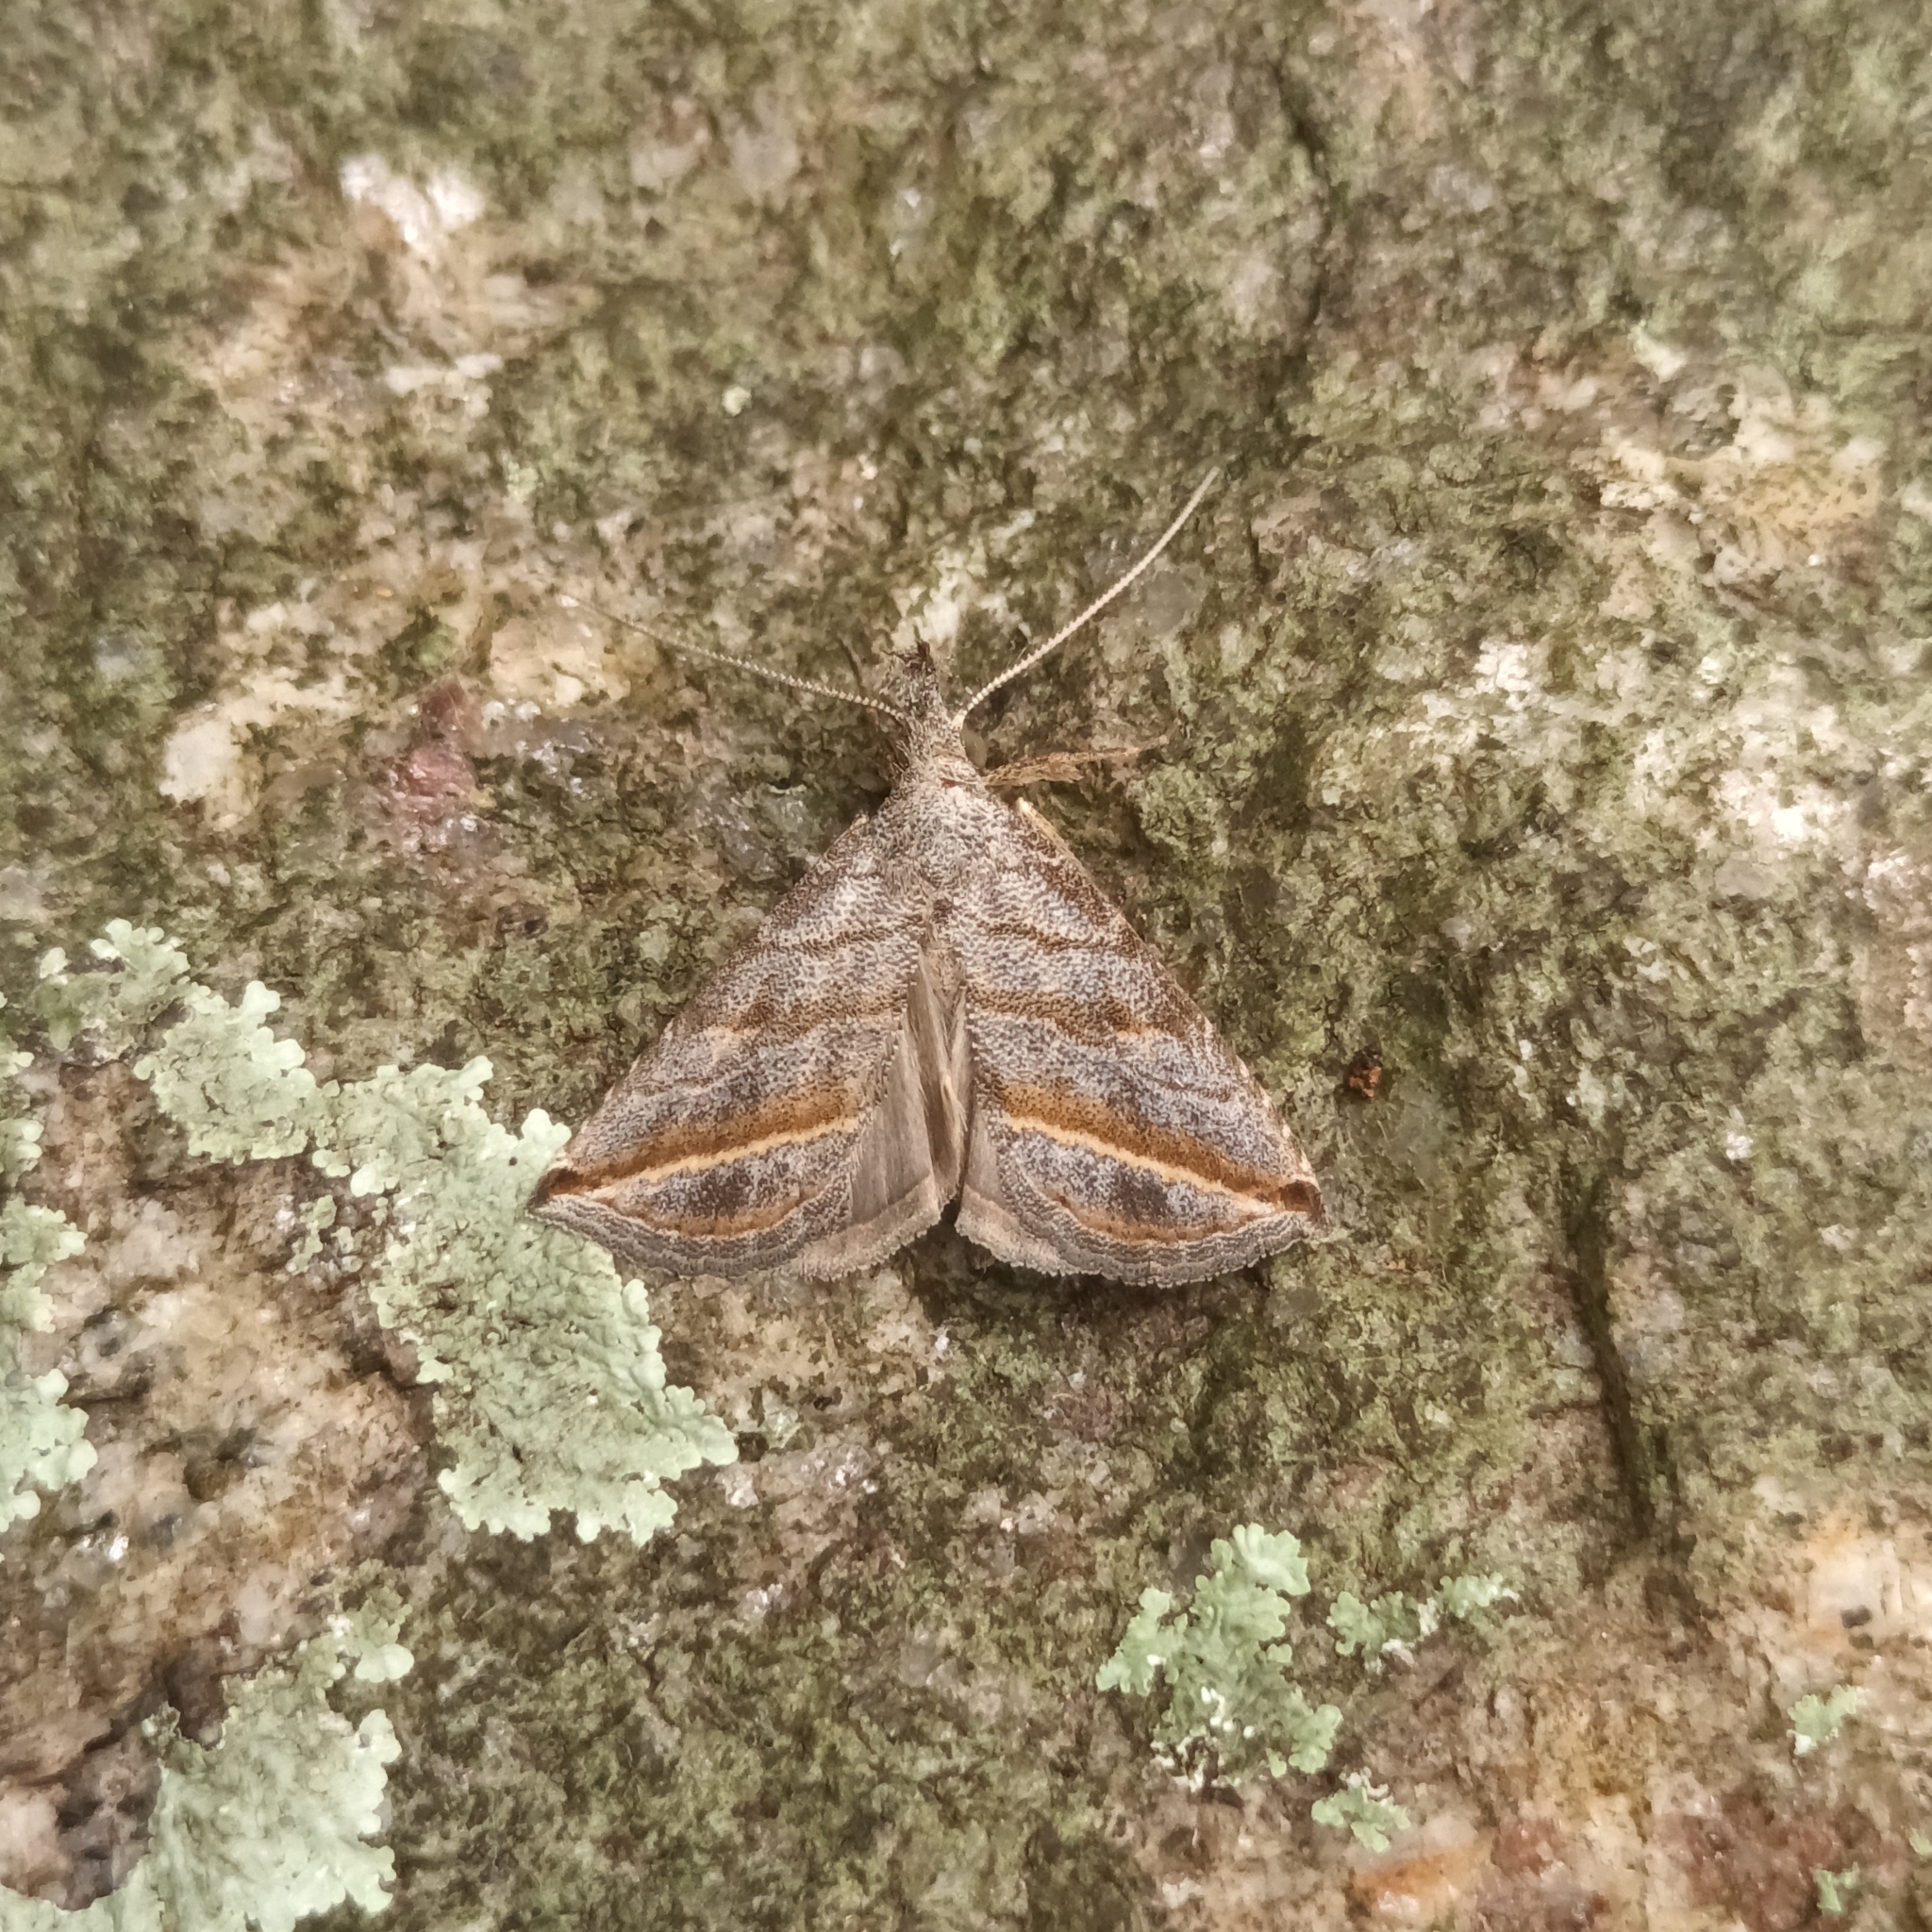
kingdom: Animalia
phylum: Arthropoda
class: Insecta
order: Lepidoptera
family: Erebidae
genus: Britha
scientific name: Britha biguttata
